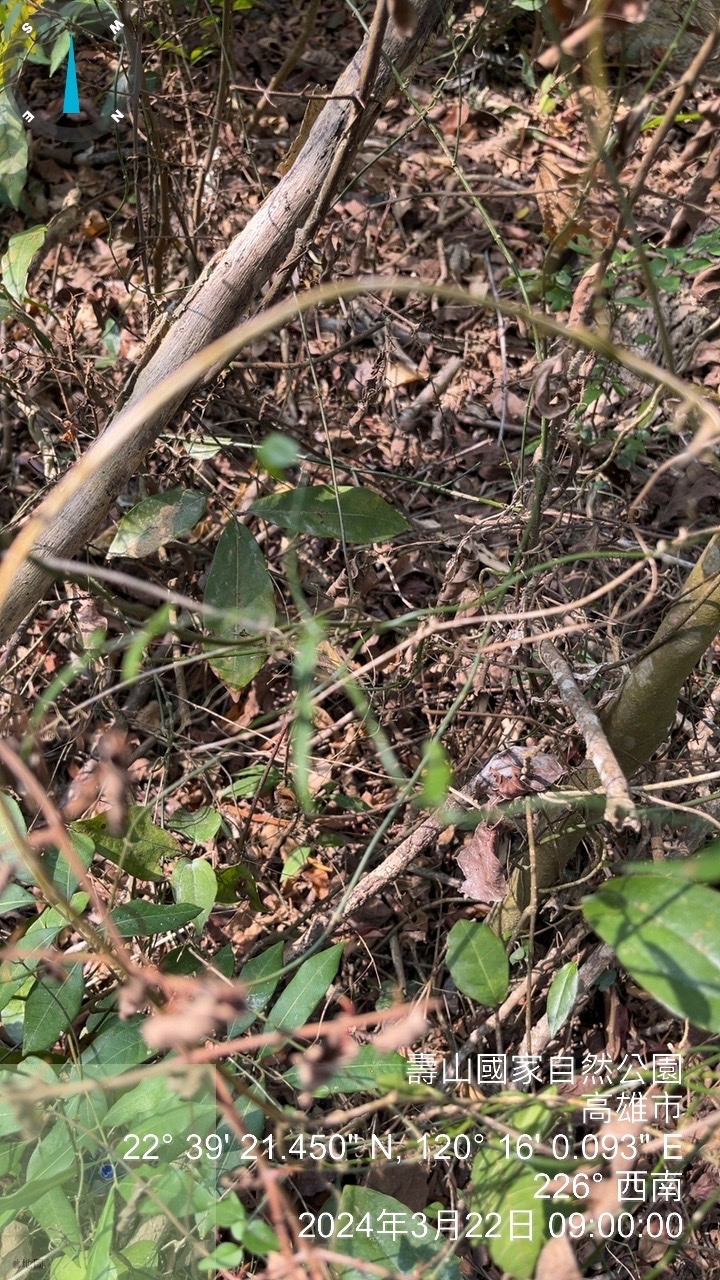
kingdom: Plantae
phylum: Tracheophyta
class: Magnoliopsida
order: Asterales
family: Asteraceae
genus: Cyanthillium
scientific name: Cyanthillium cinereum
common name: Little ironweed
